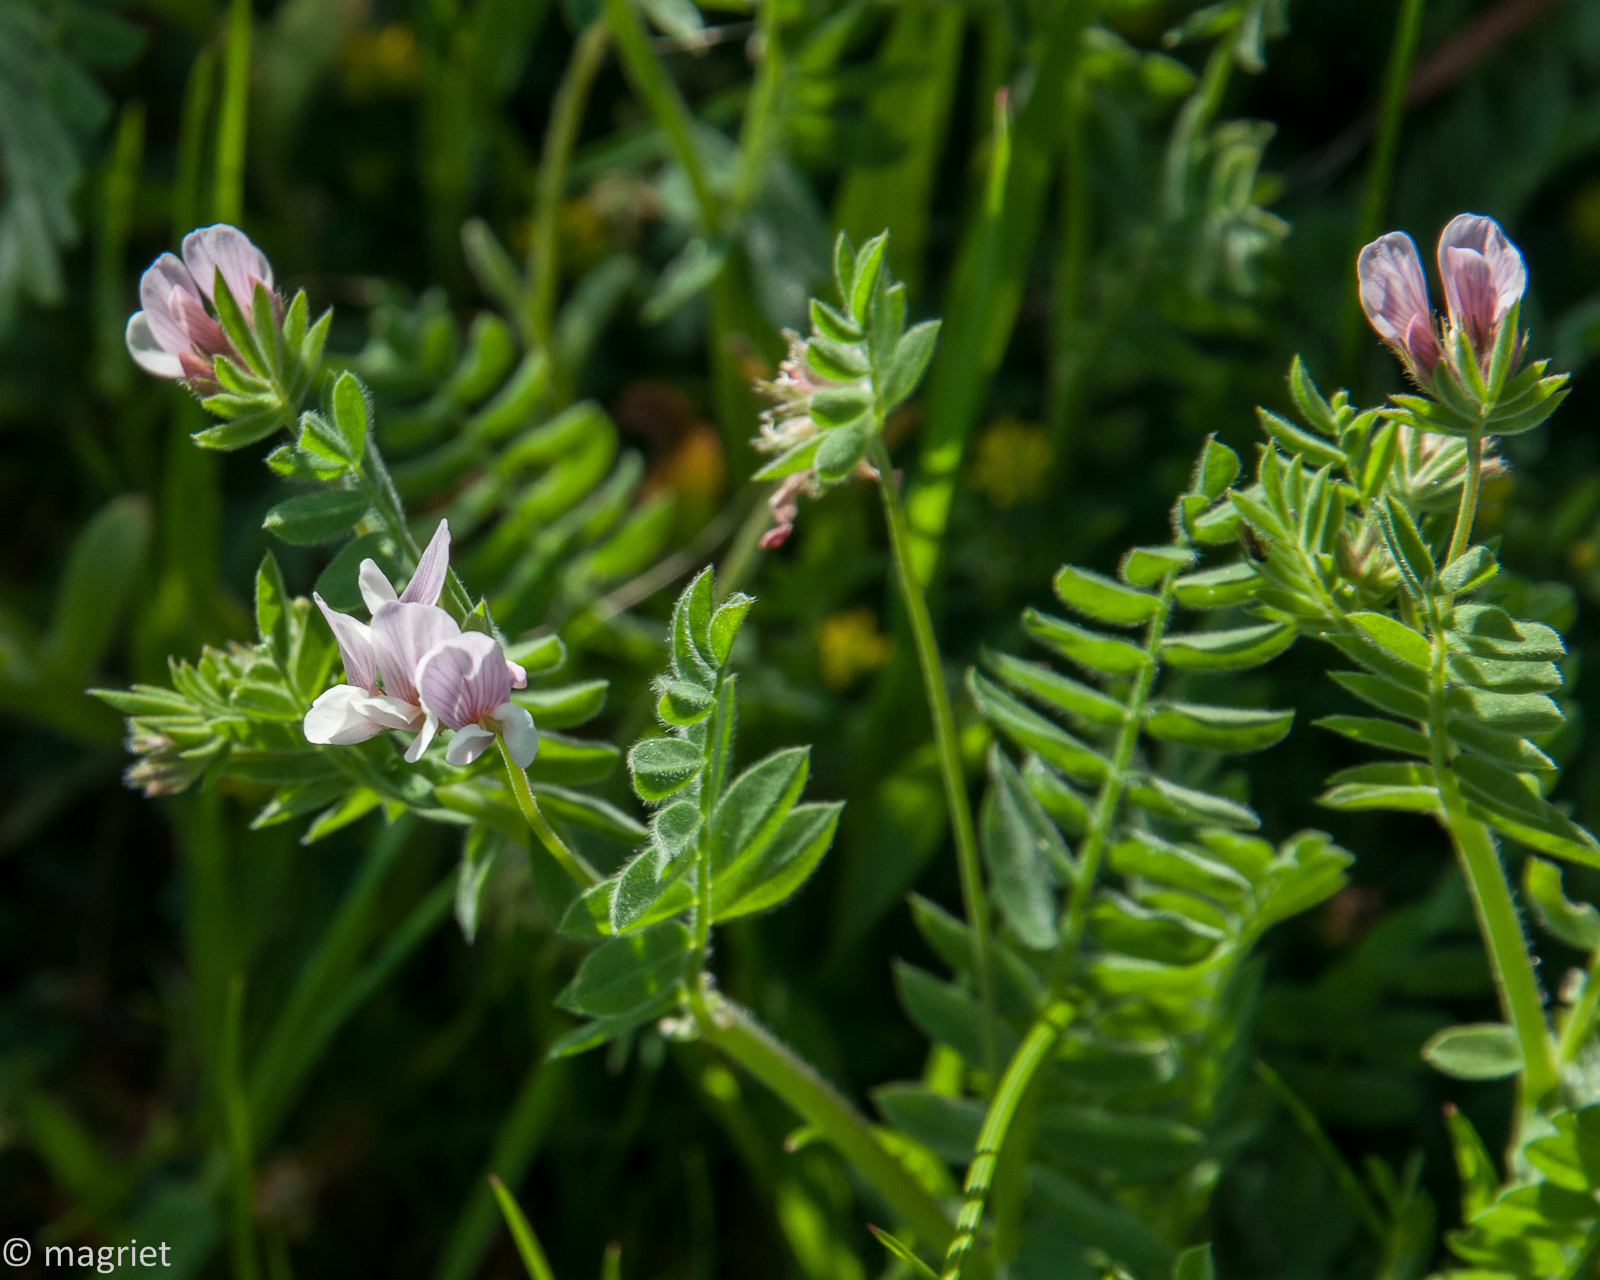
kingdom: Plantae
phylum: Tracheophyta
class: Magnoliopsida
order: Fabales
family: Fabaceae
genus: Ornithopus
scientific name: Ornithopus sativus
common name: Serradella
